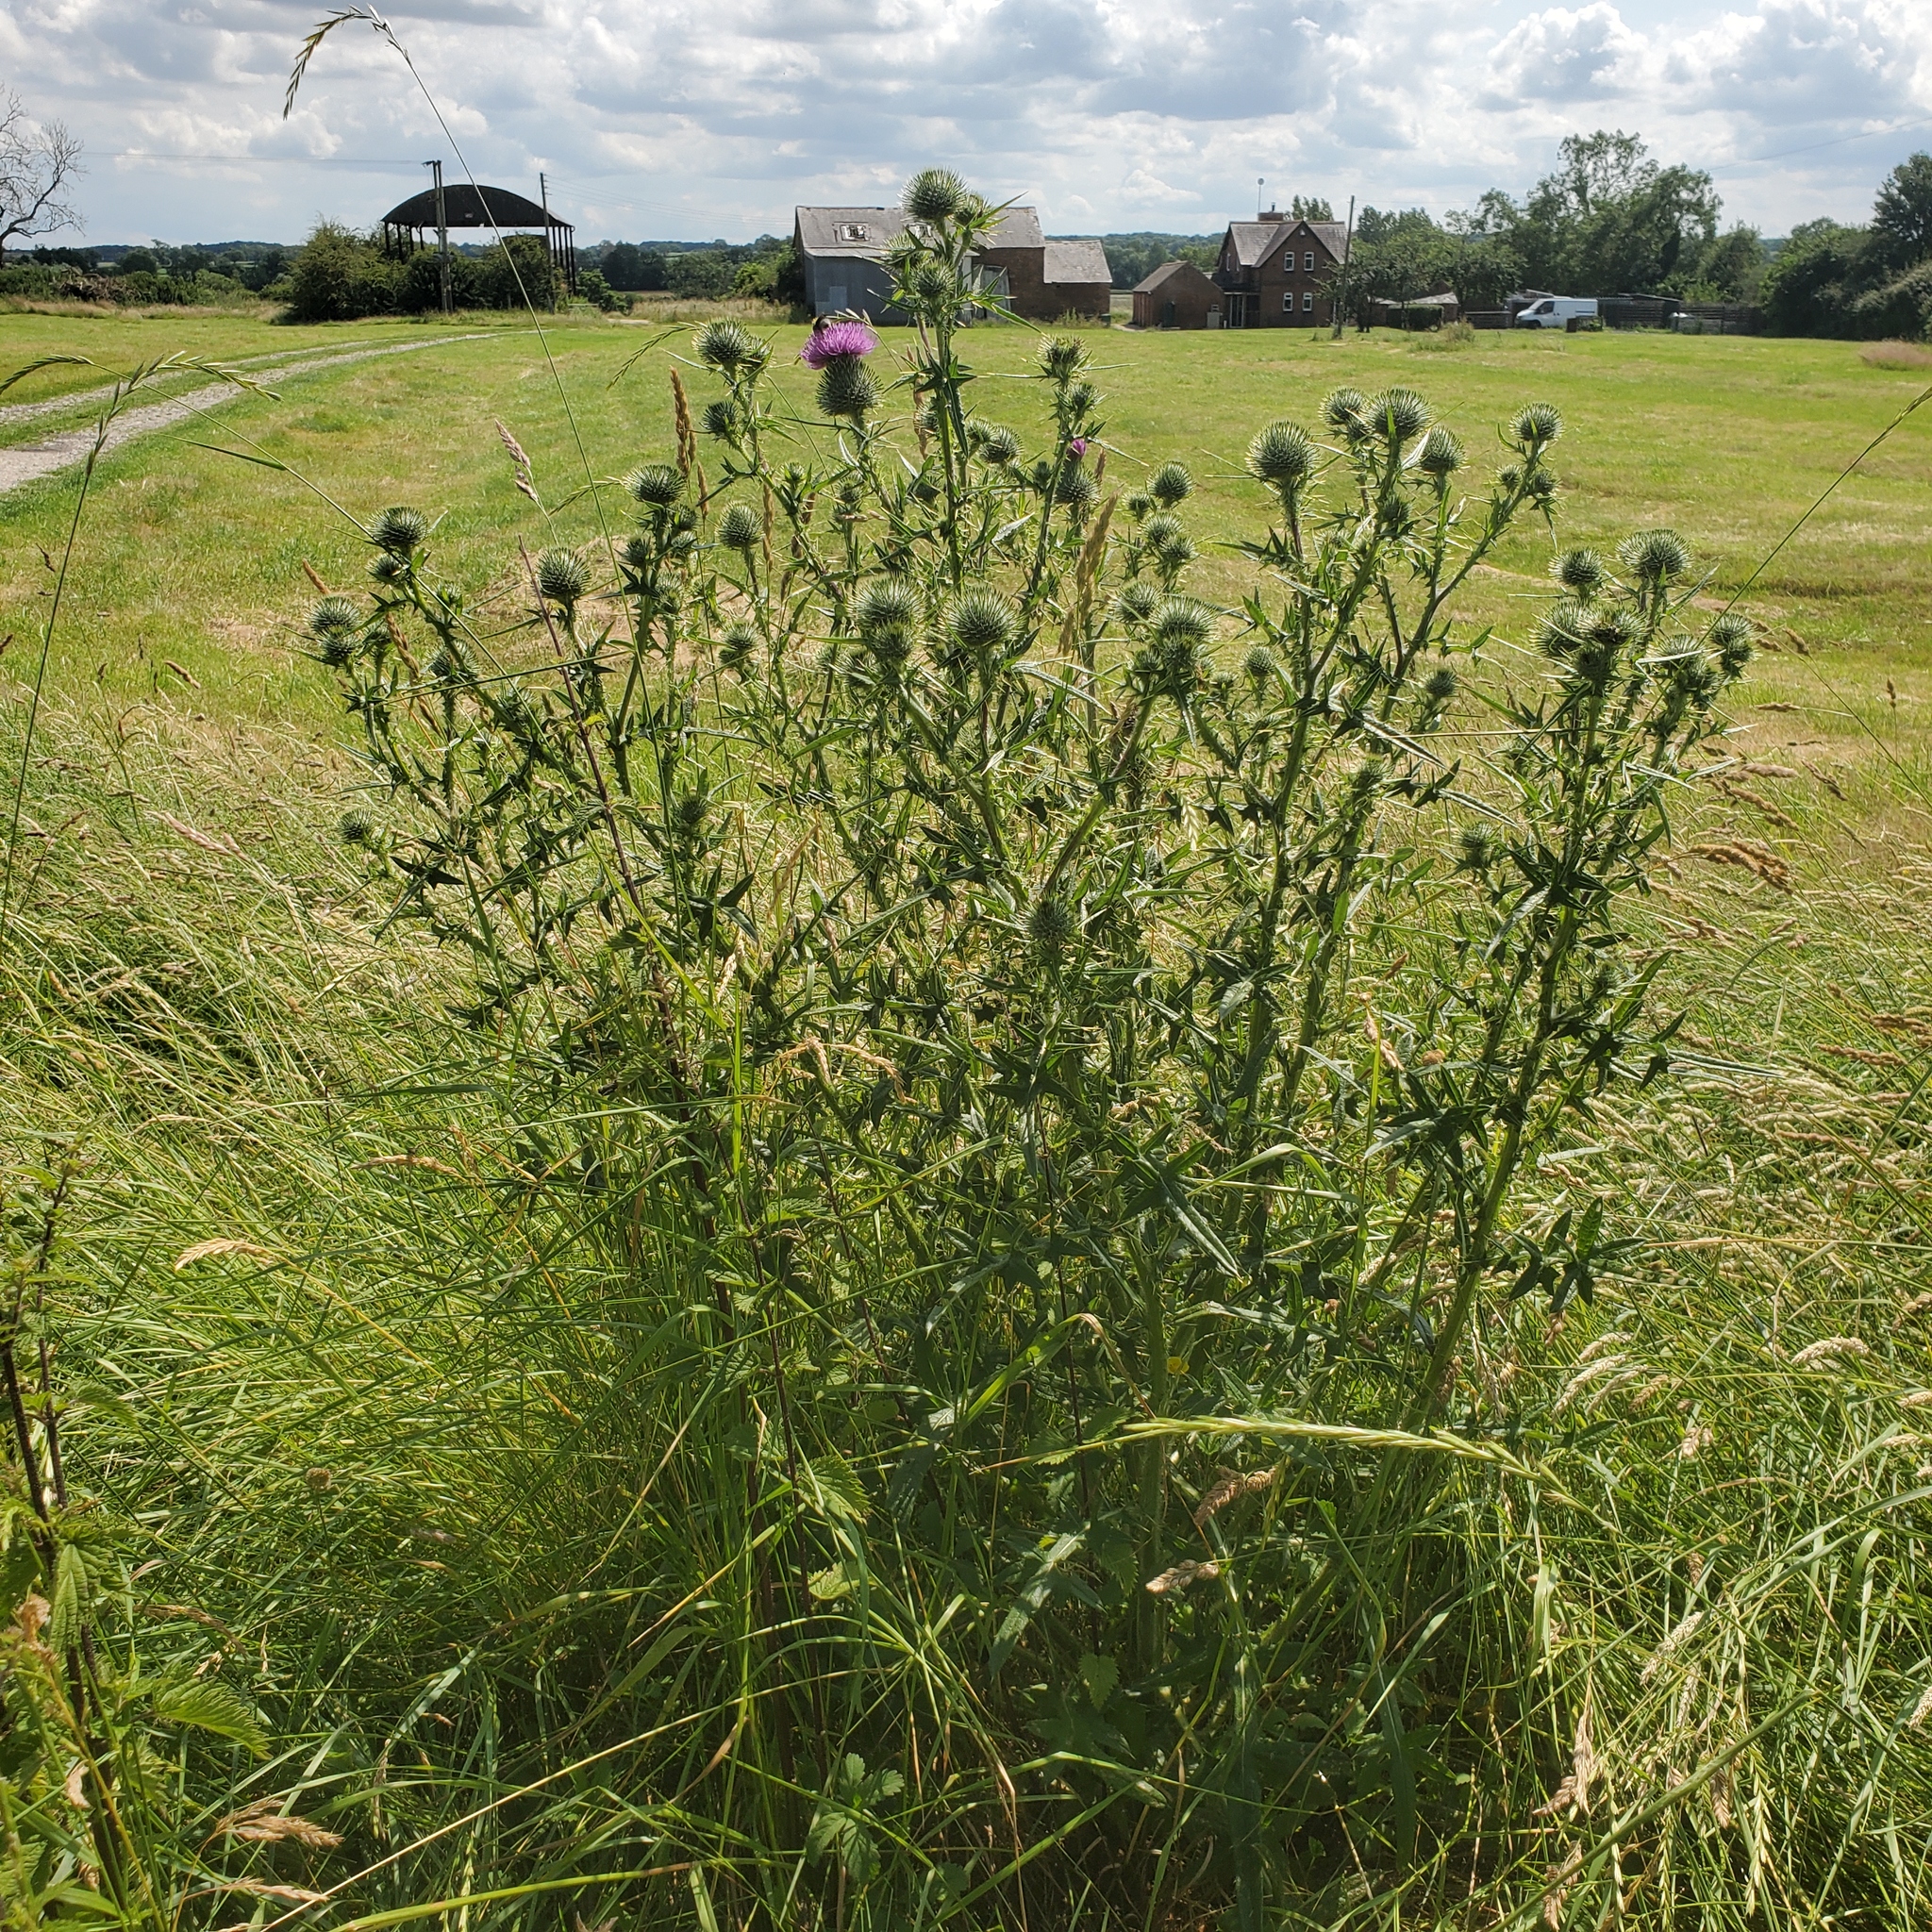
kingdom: Plantae
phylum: Tracheophyta
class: Magnoliopsida
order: Asterales
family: Asteraceae
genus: Cirsium
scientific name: Cirsium vulgare
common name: Bull thistle
